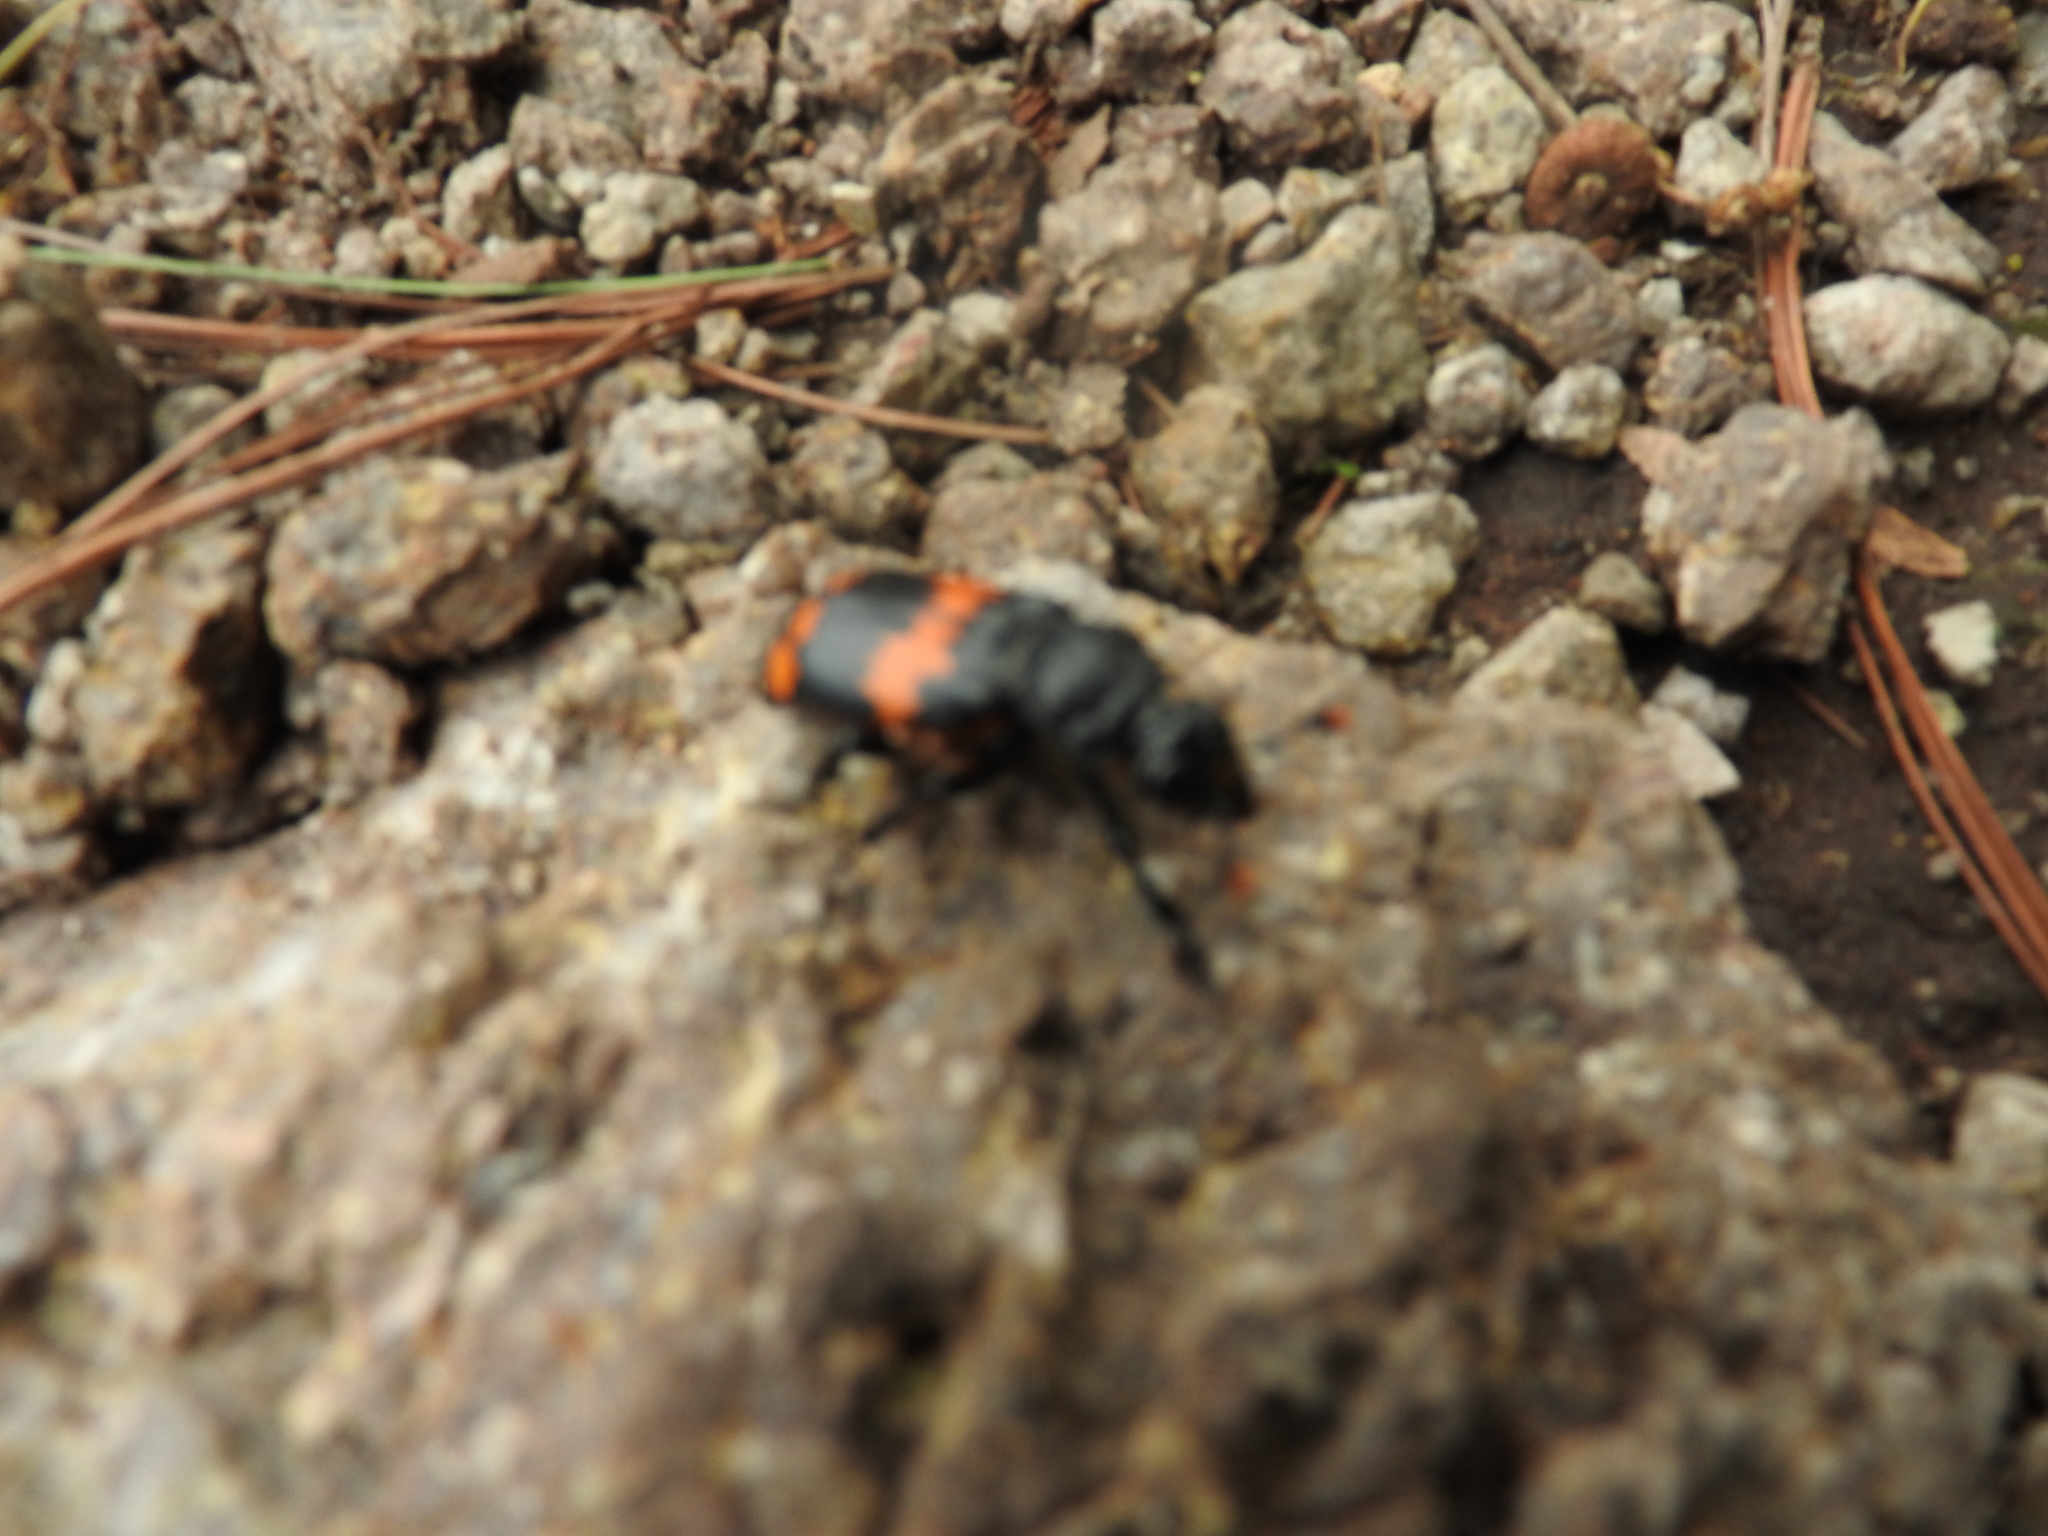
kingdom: Animalia
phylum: Arthropoda
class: Insecta
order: Coleoptera
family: Staphylinidae
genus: Nicrophorus
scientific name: Nicrophorus mexicanus
